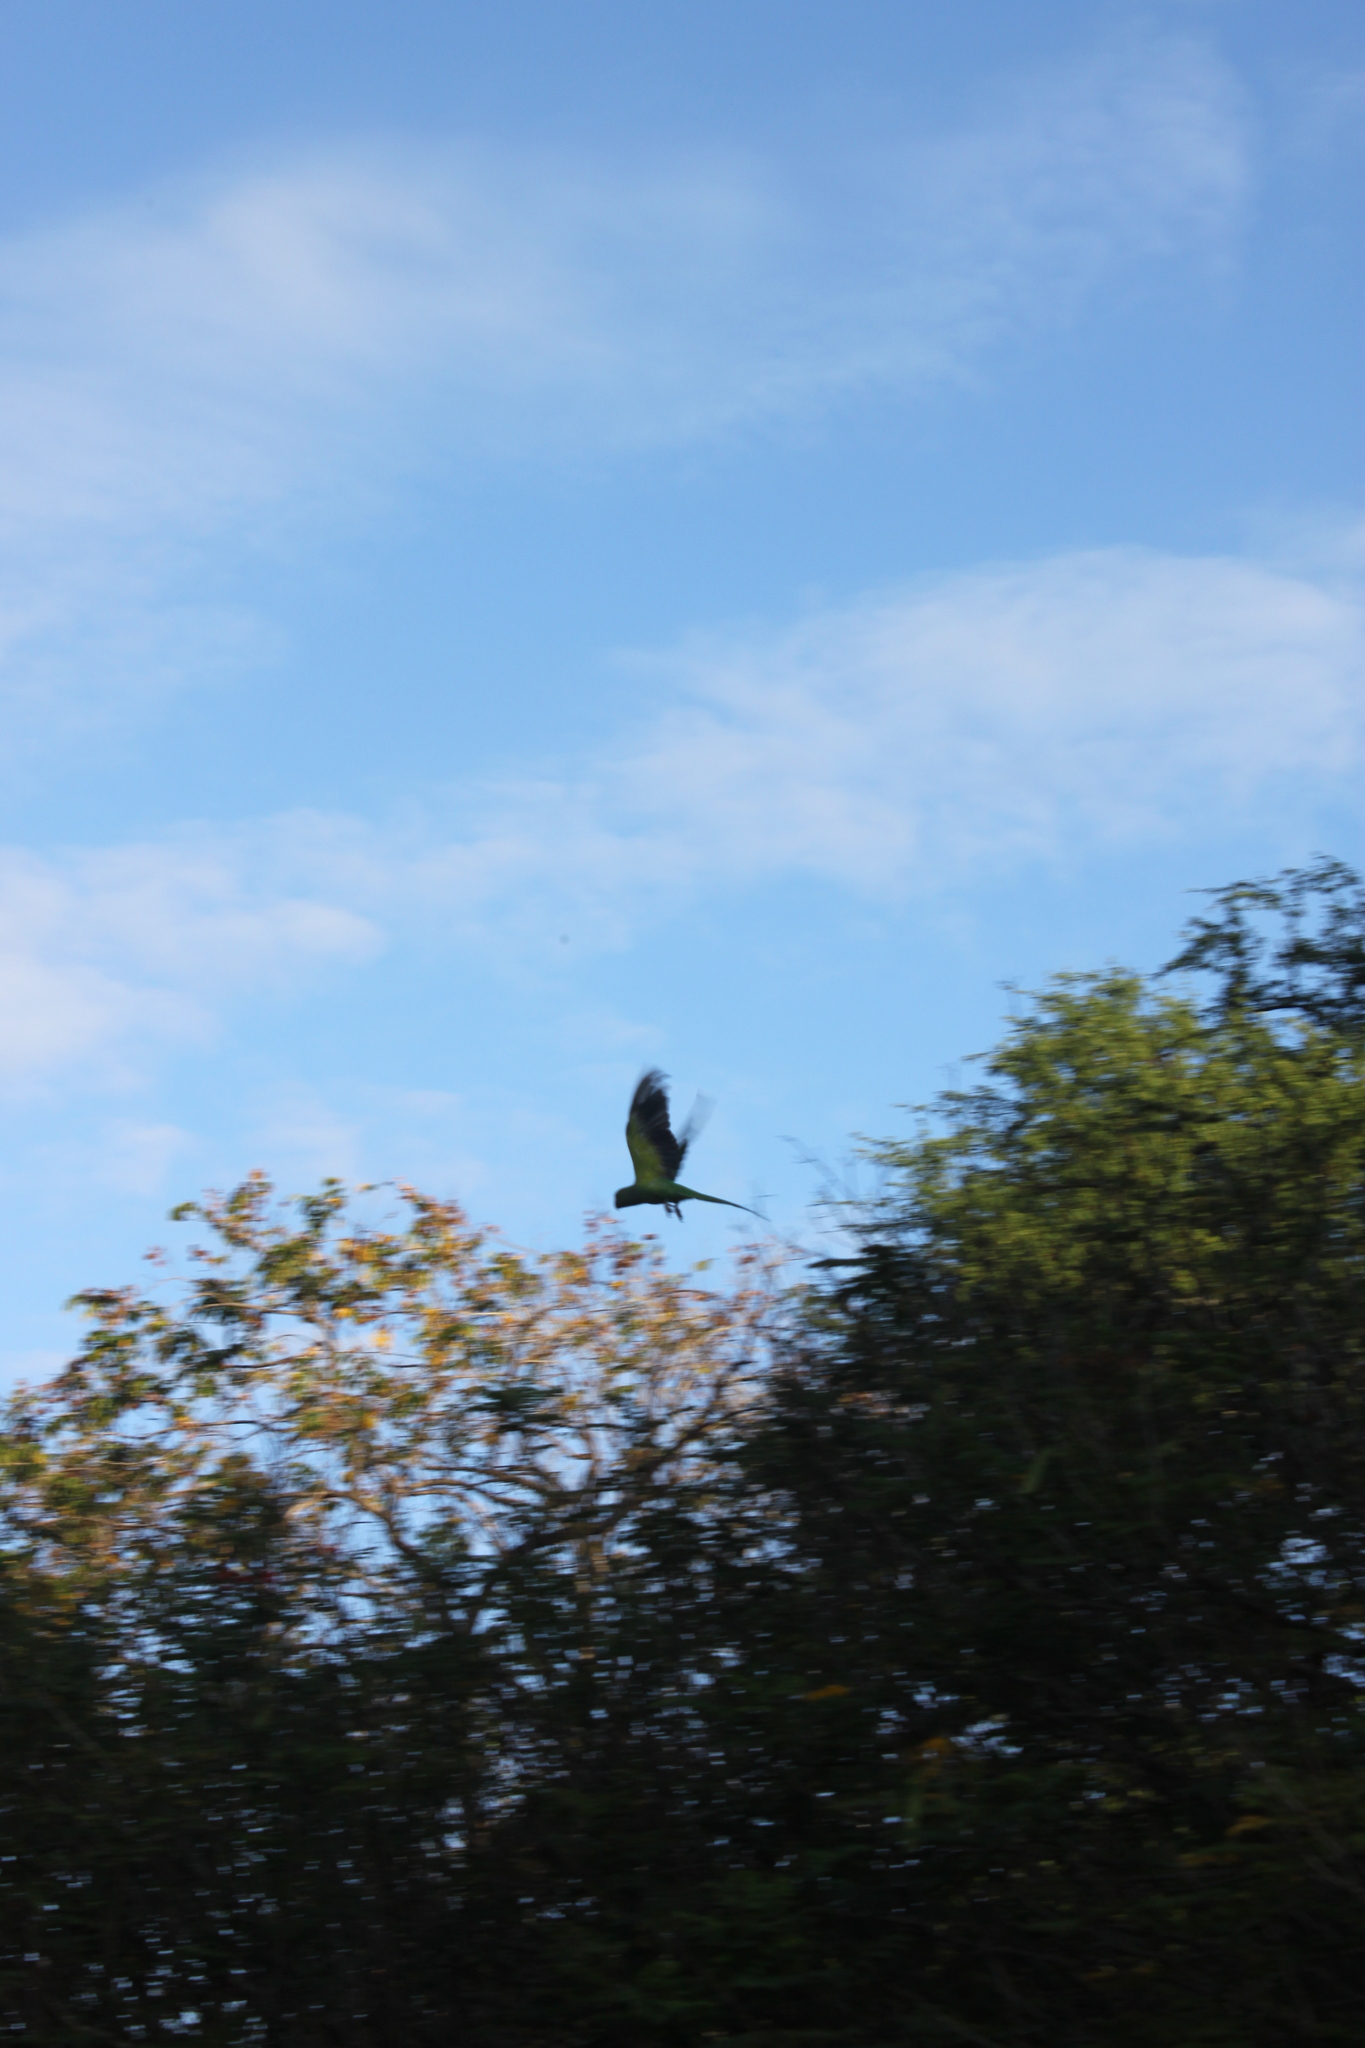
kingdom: Animalia
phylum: Chordata
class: Aves
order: Psittaciformes
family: Psittacidae
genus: Psittacula
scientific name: Psittacula krameri
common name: Rose-ringed parakeet
